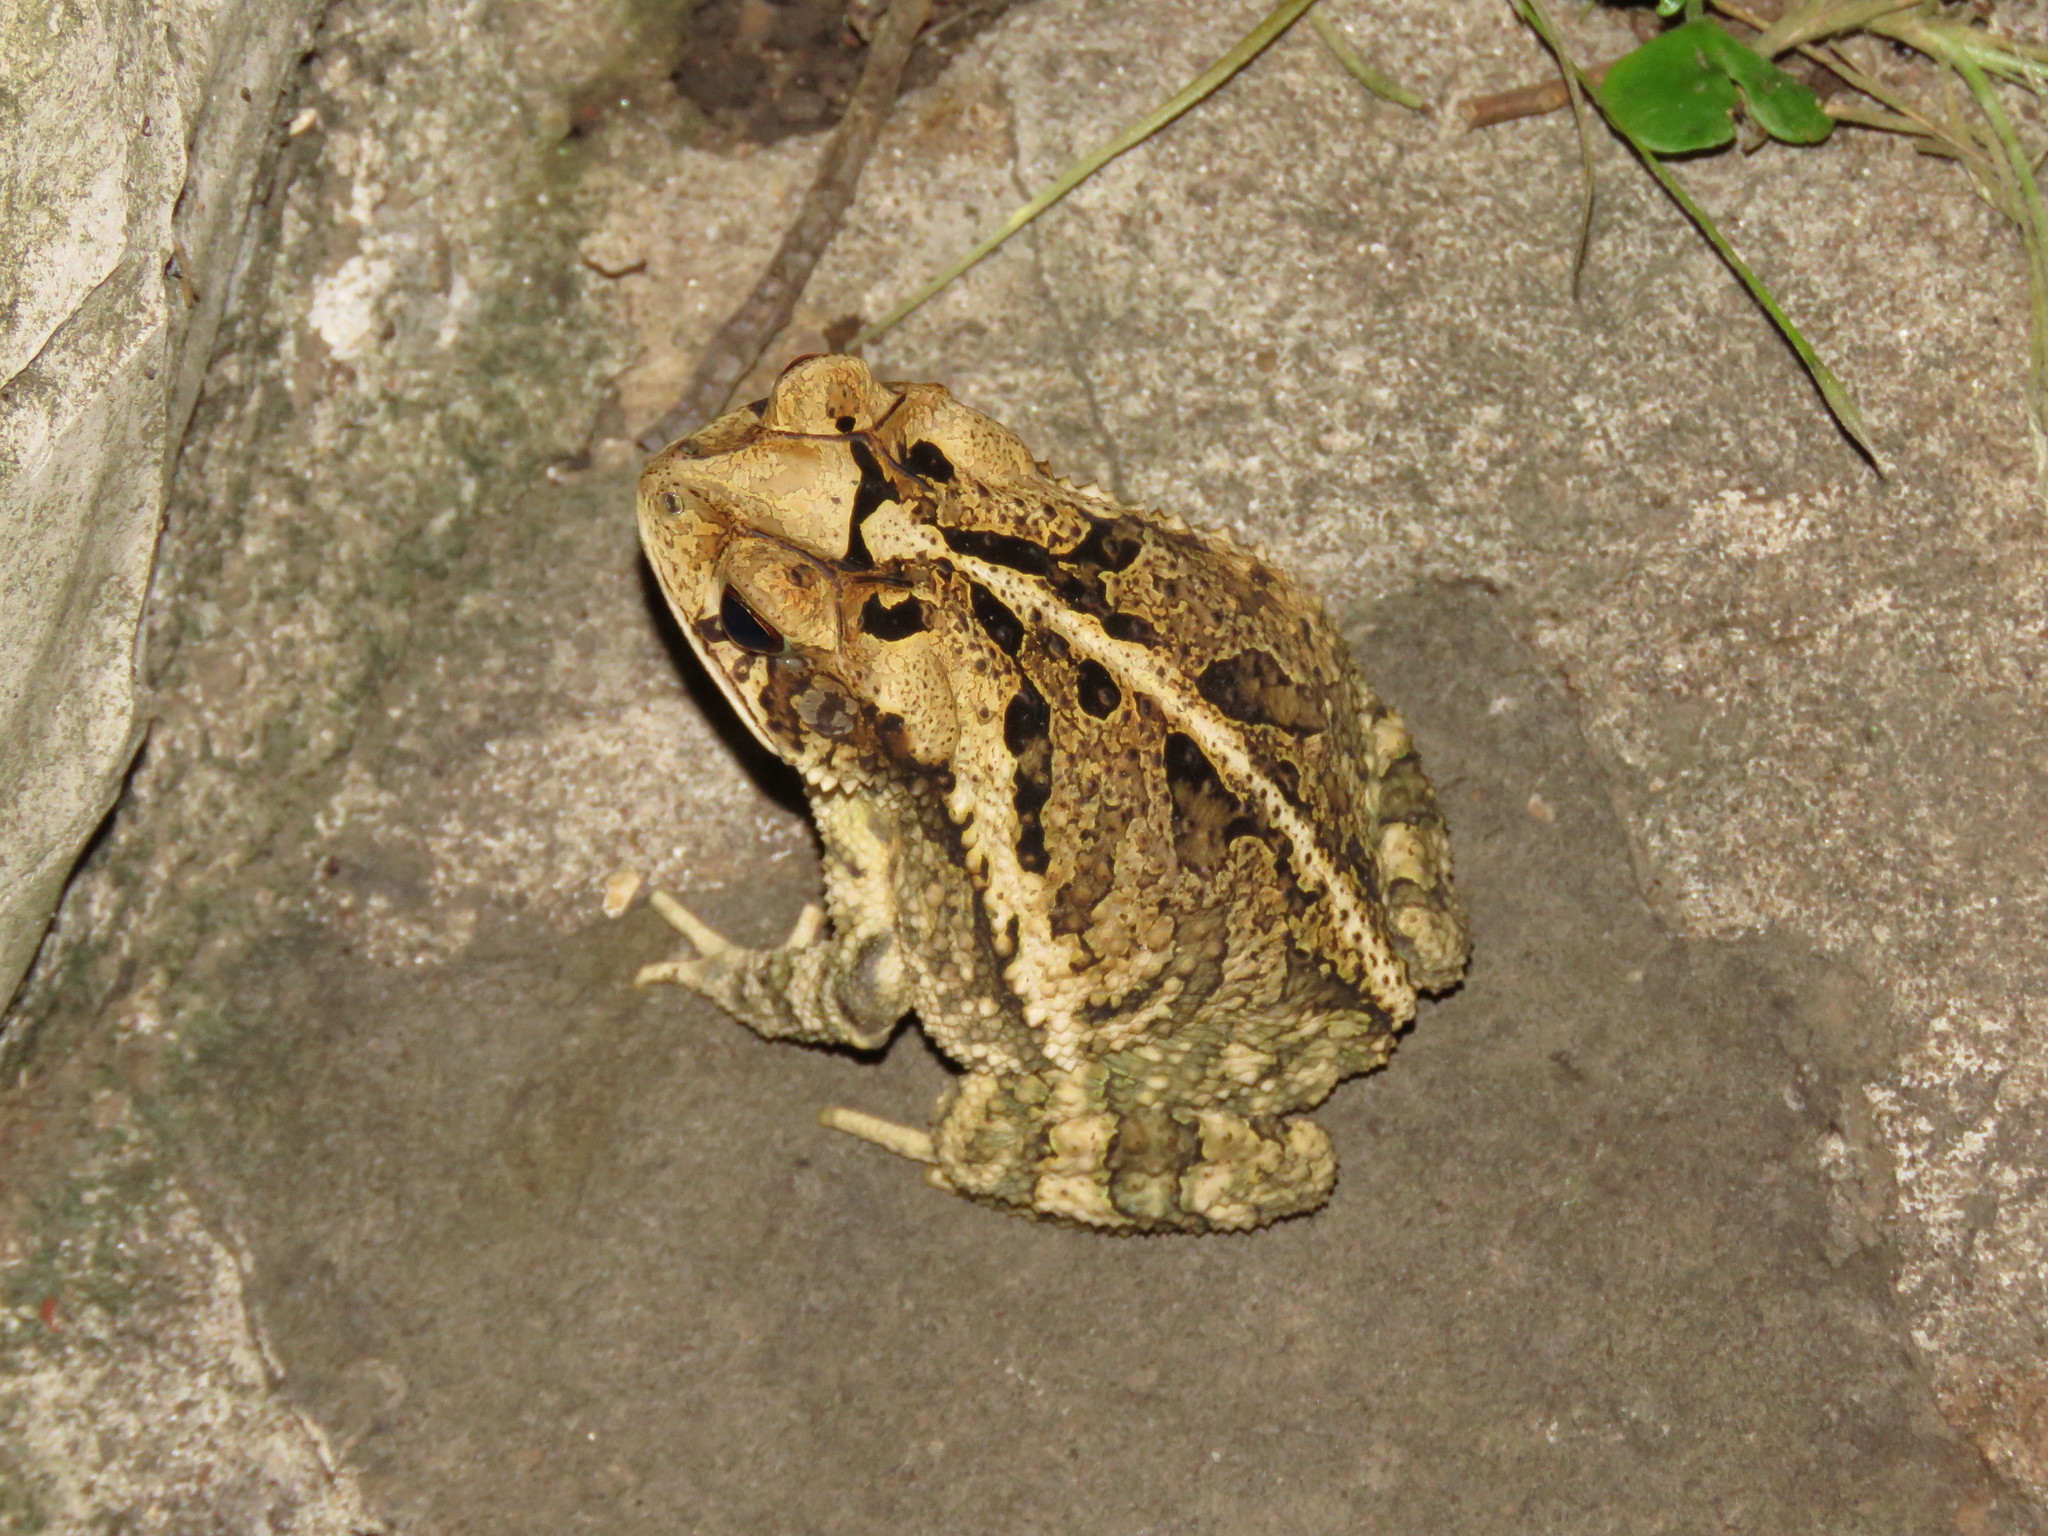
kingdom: Animalia
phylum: Chordata
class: Amphibia
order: Anura
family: Bufonidae
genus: Incilius
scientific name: Incilius nebulifer
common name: Gulf coast toad
